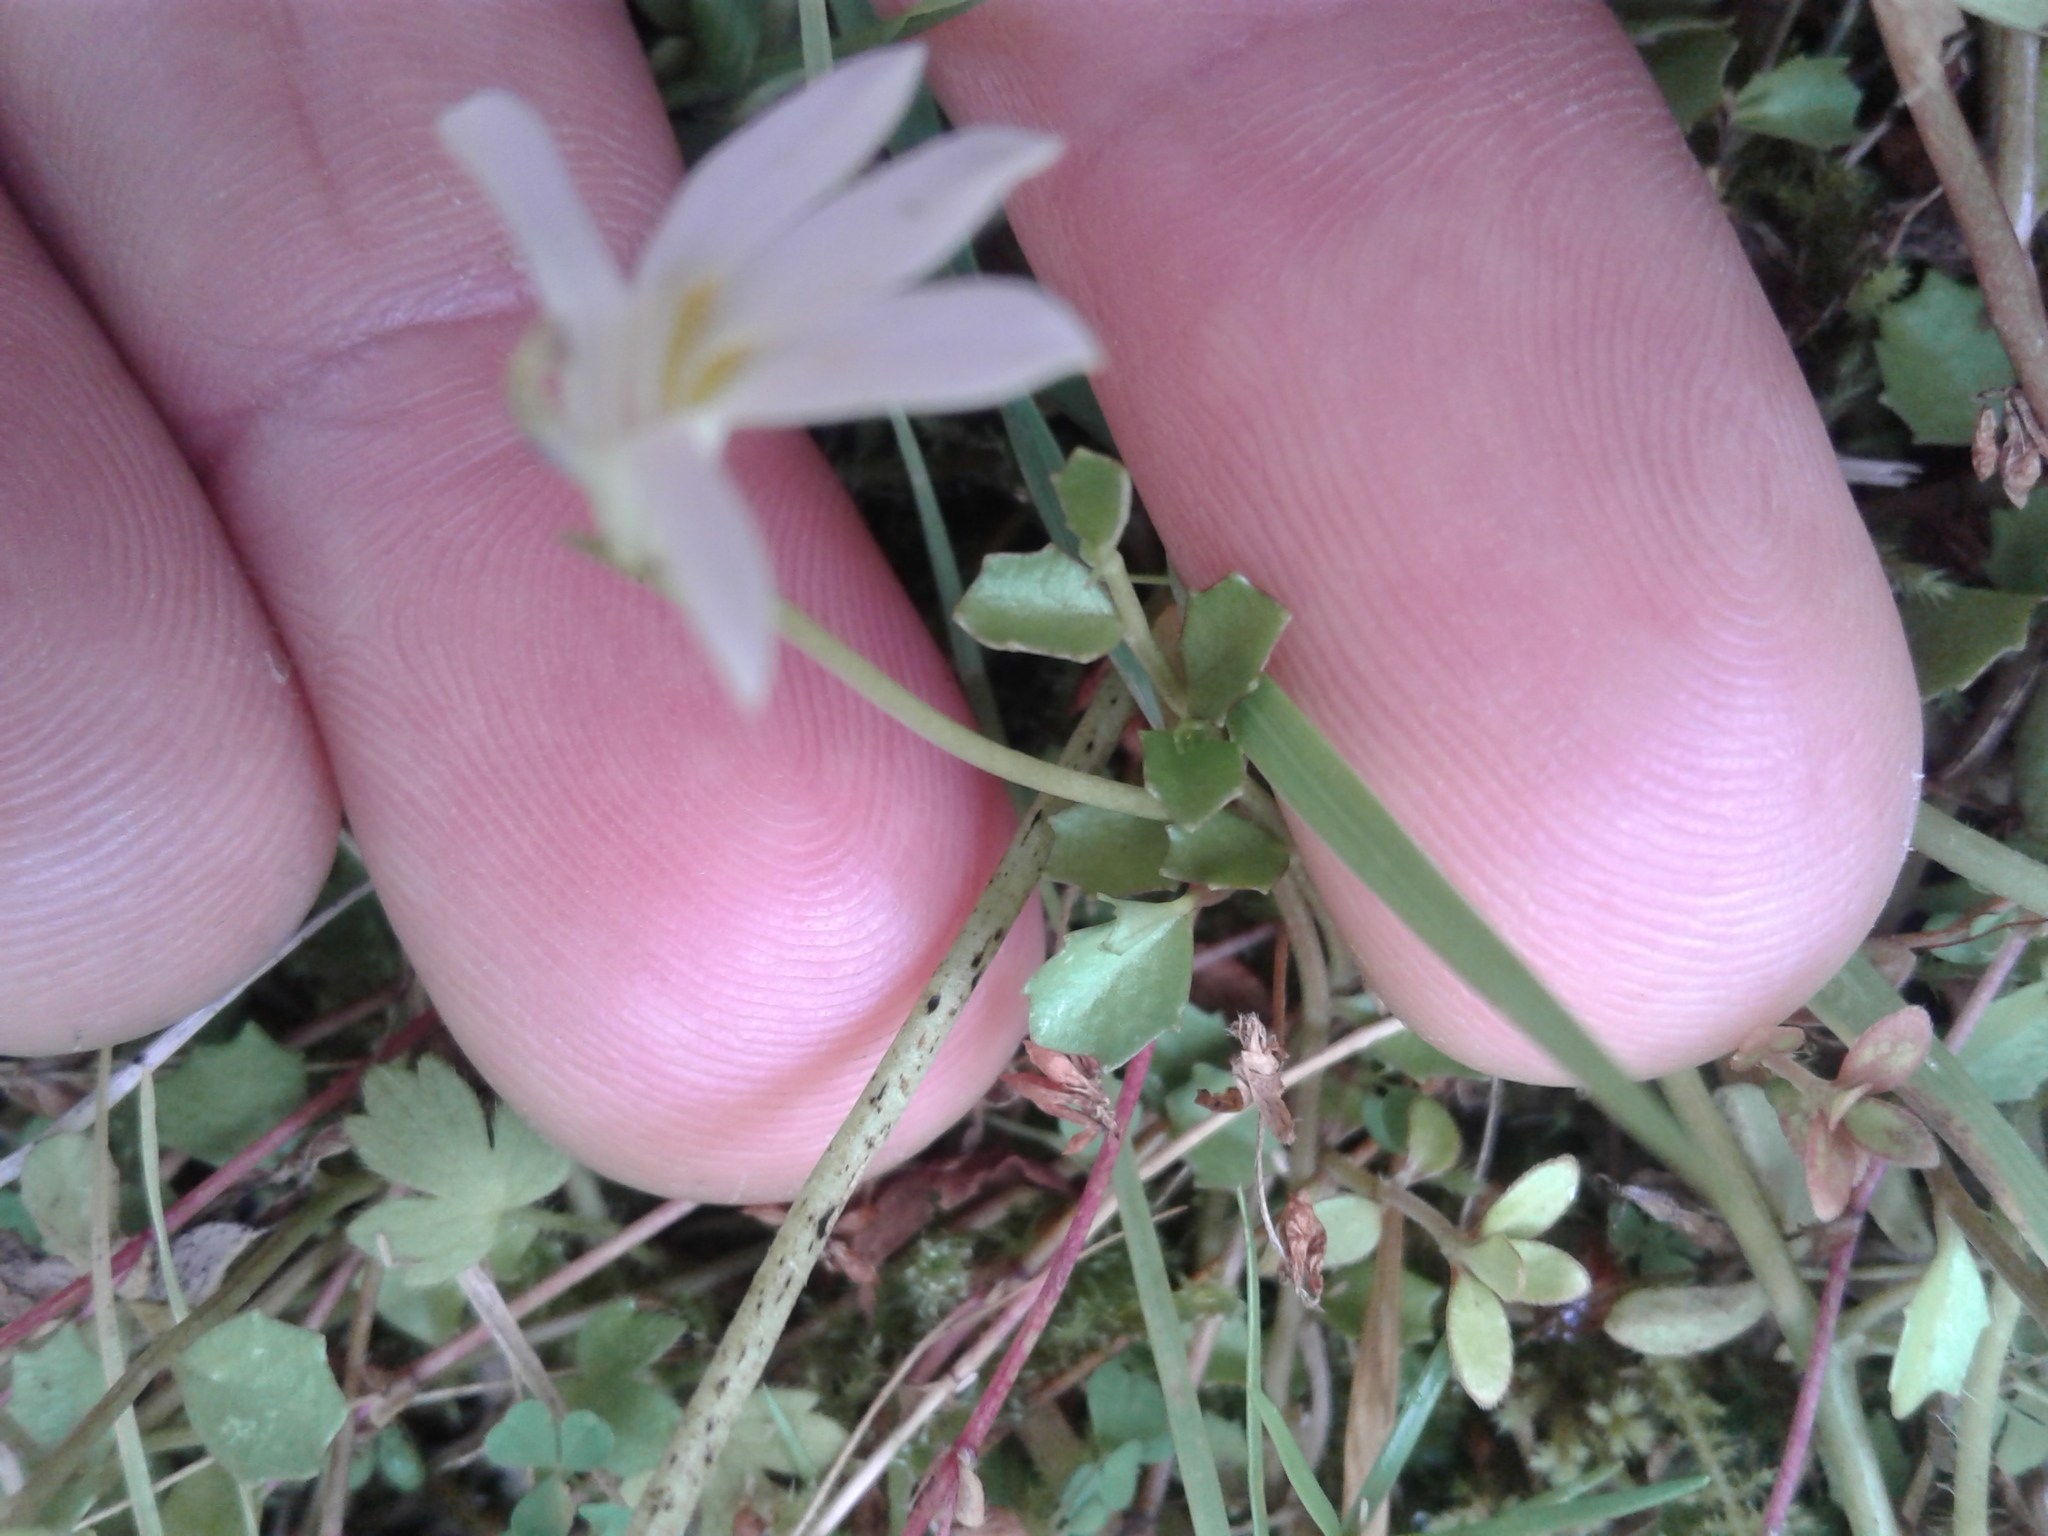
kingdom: Plantae
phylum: Tracheophyta
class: Magnoliopsida
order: Asterales
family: Campanulaceae
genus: Lobelia
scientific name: Lobelia angulata
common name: Lawn lobelia
